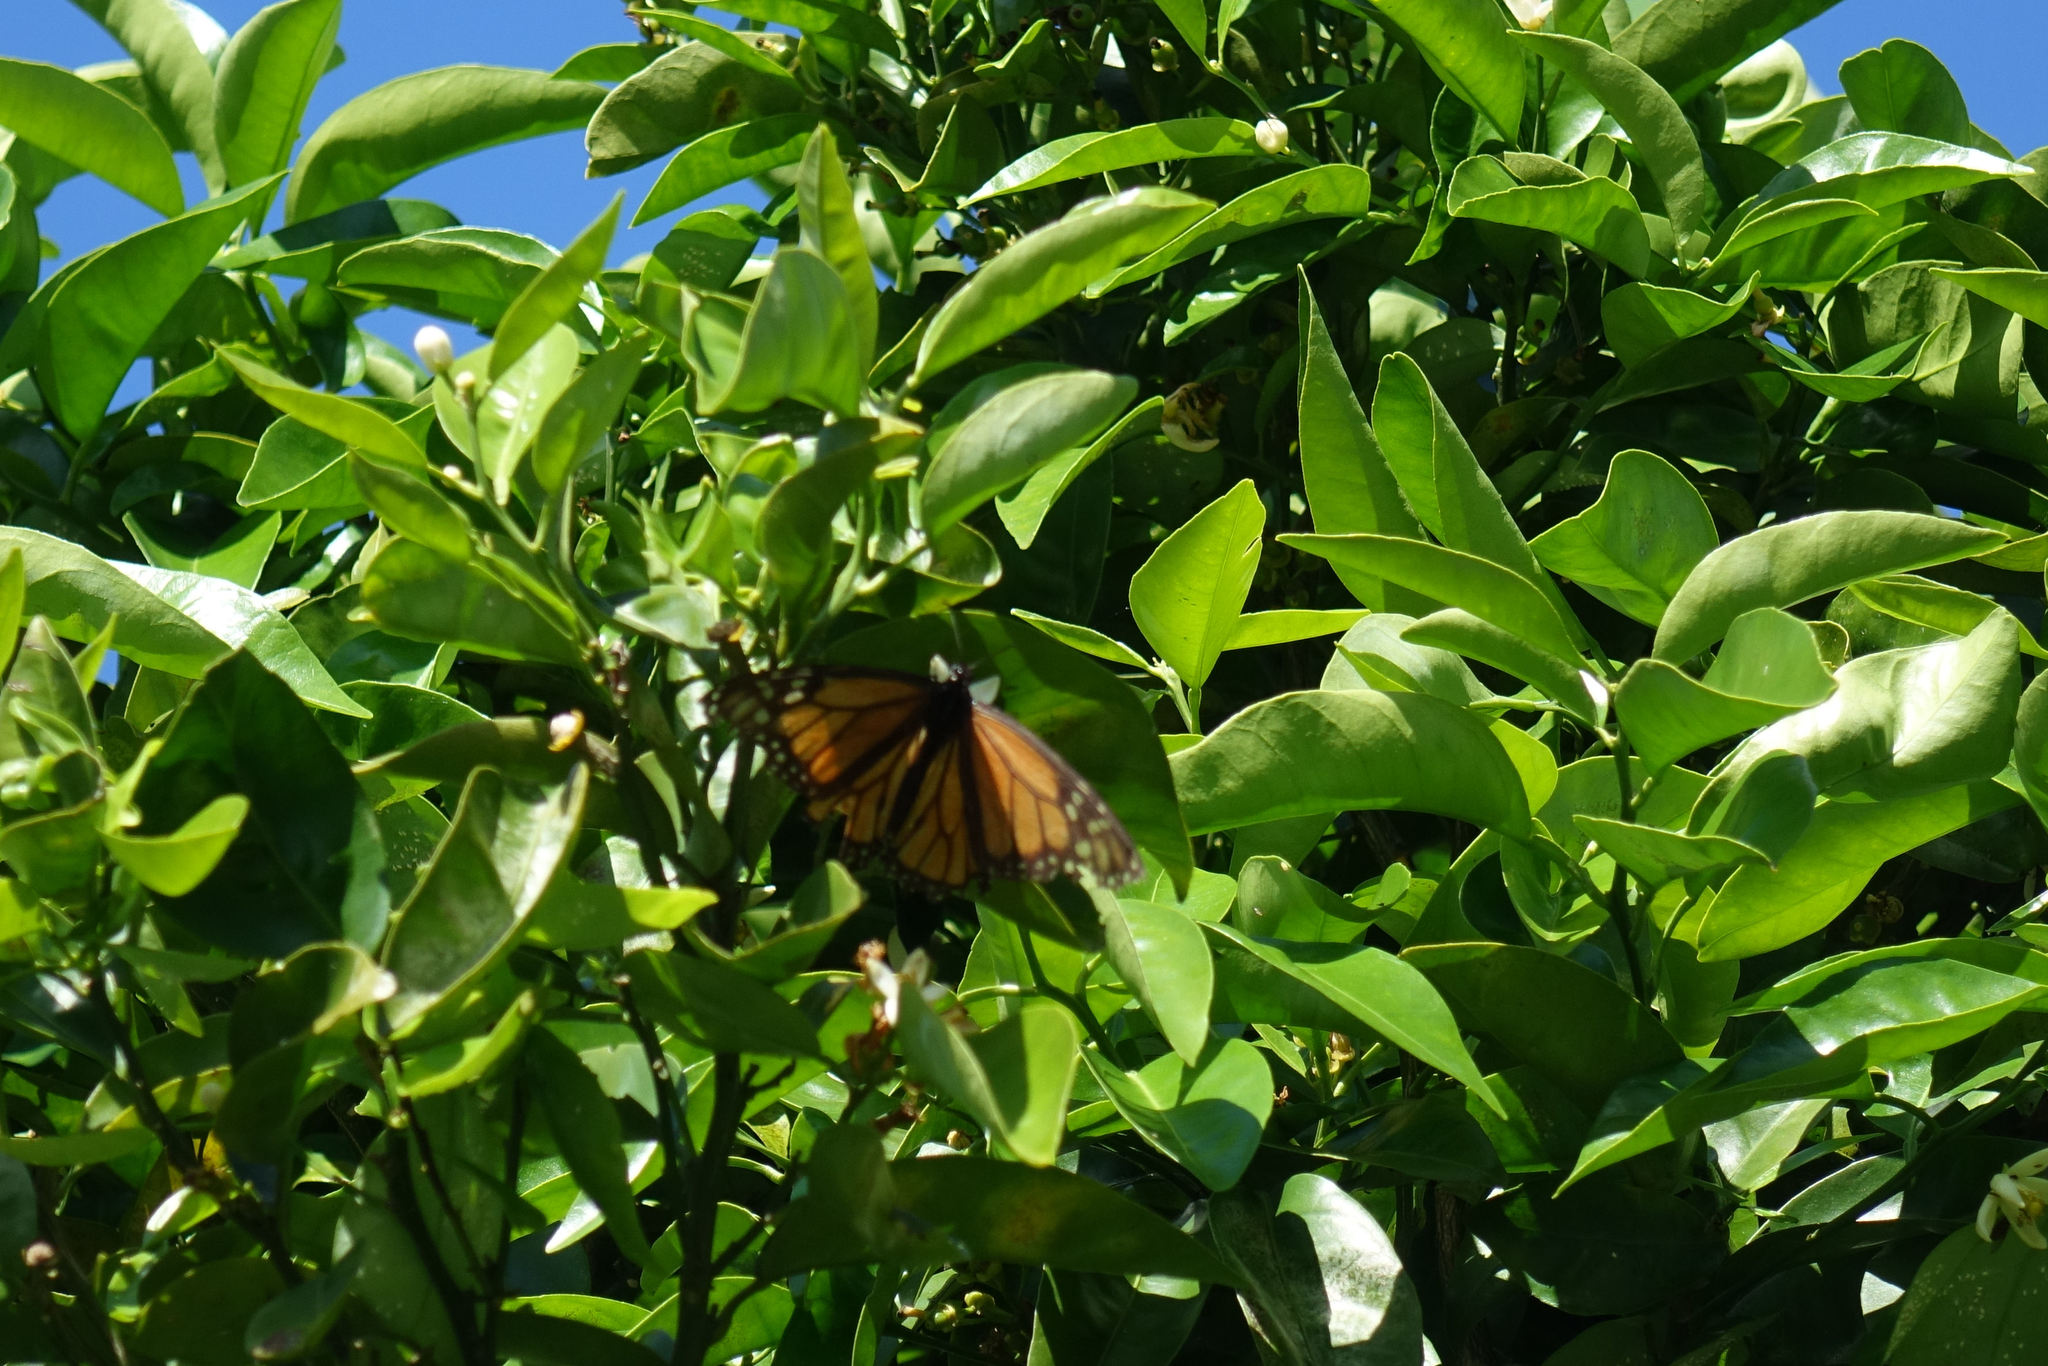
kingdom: Animalia
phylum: Arthropoda
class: Insecta
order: Lepidoptera
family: Nymphalidae
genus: Danaus
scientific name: Danaus plexippus
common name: Monarch
